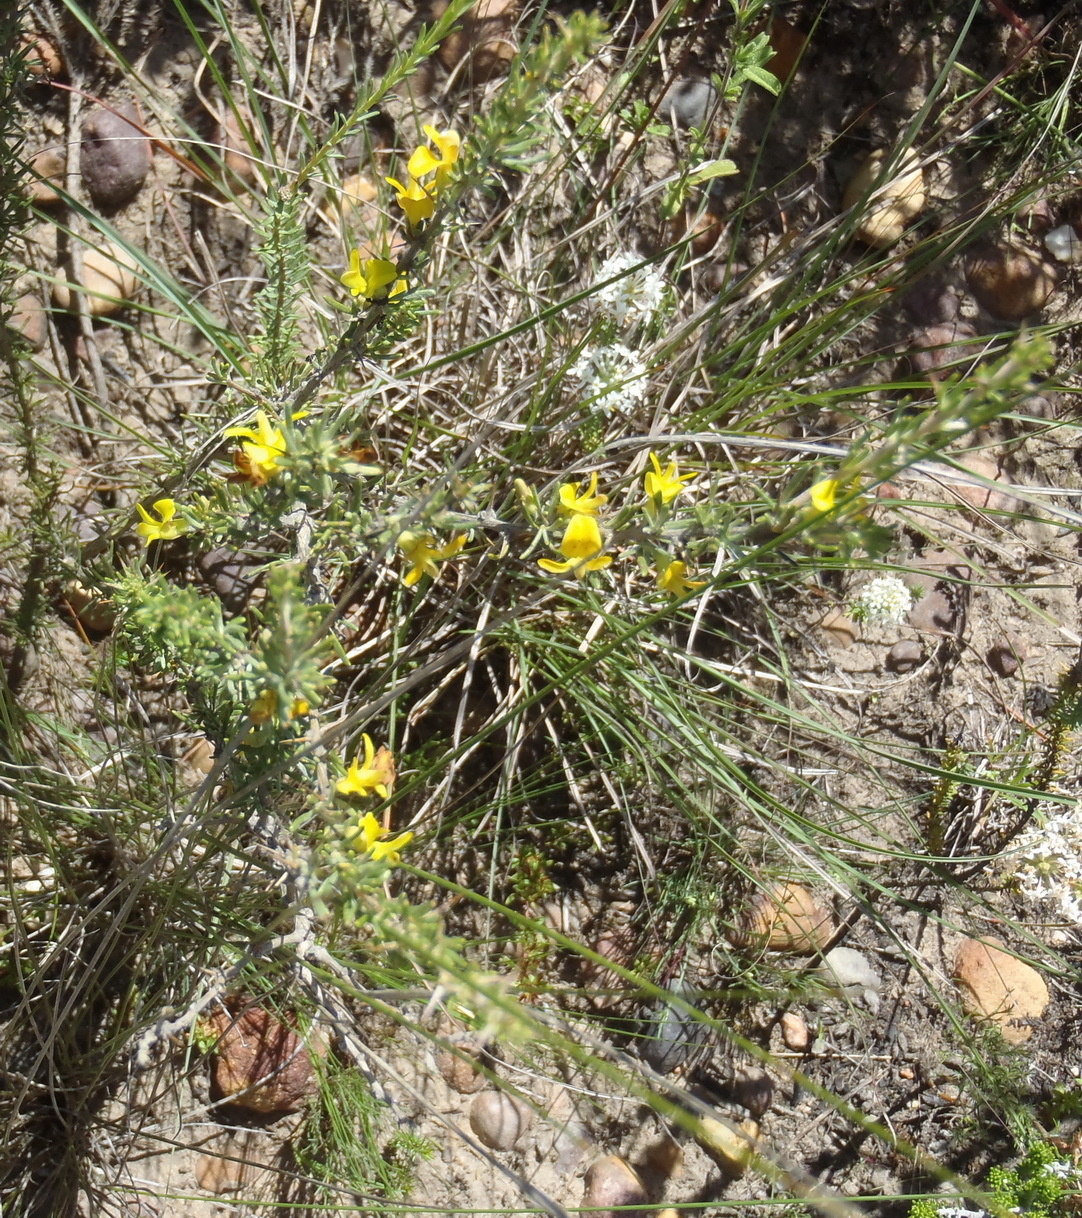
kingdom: Plantae
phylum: Tracheophyta
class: Magnoliopsida
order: Fabales
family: Fabaceae
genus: Aspalathus
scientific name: Aspalathus spinosa
